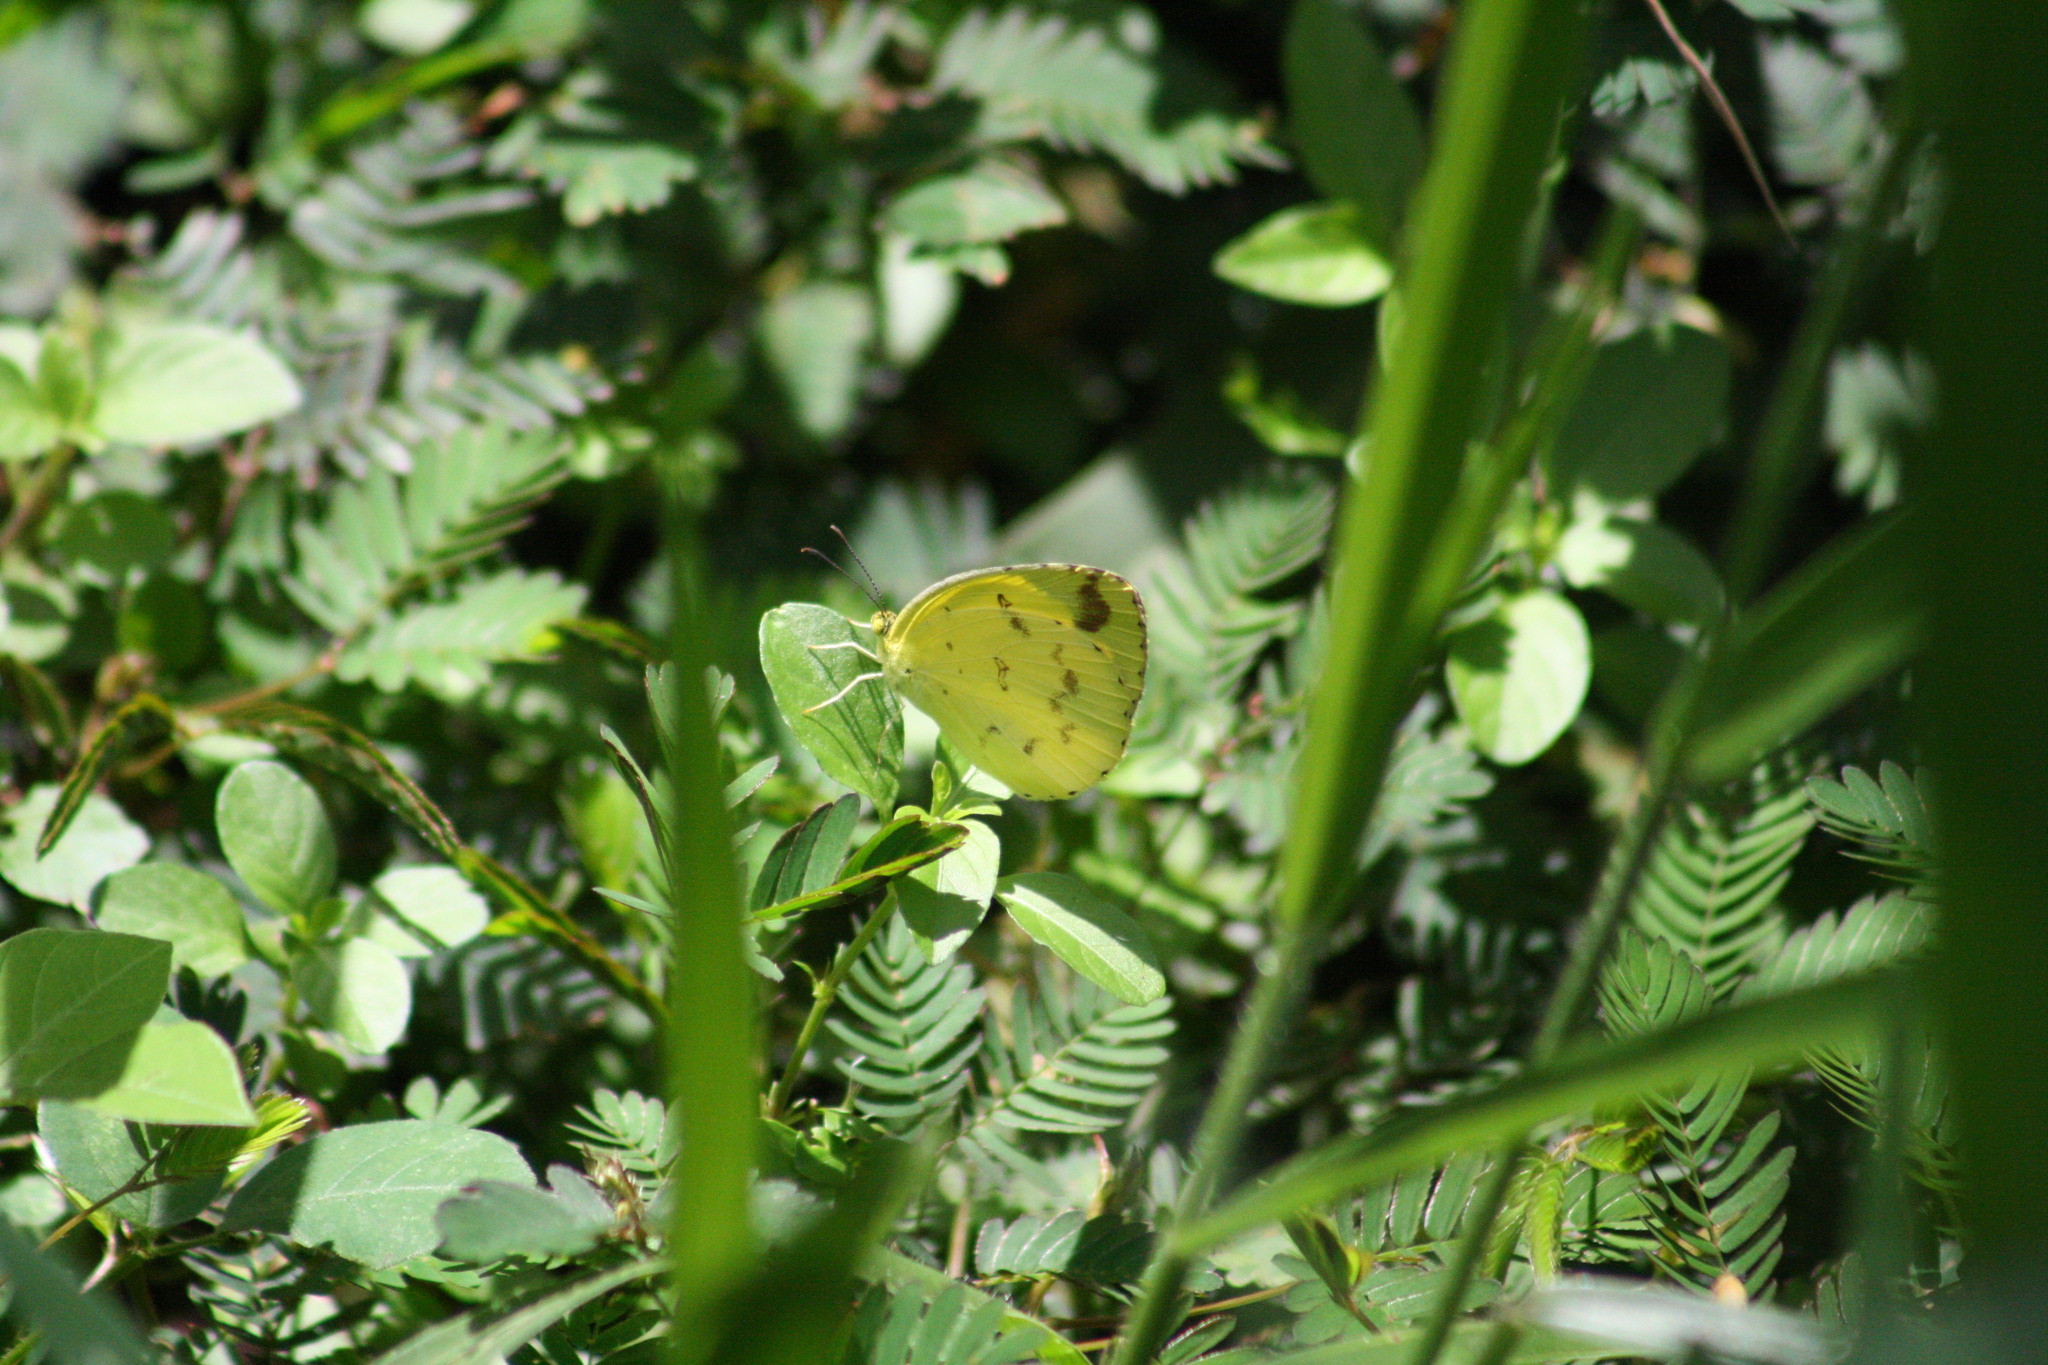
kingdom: Animalia
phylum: Arthropoda
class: Insecta
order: Lepidoptera
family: Pieridae
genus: Eurema
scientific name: Eurema hecabe
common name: Pale grass yellow
